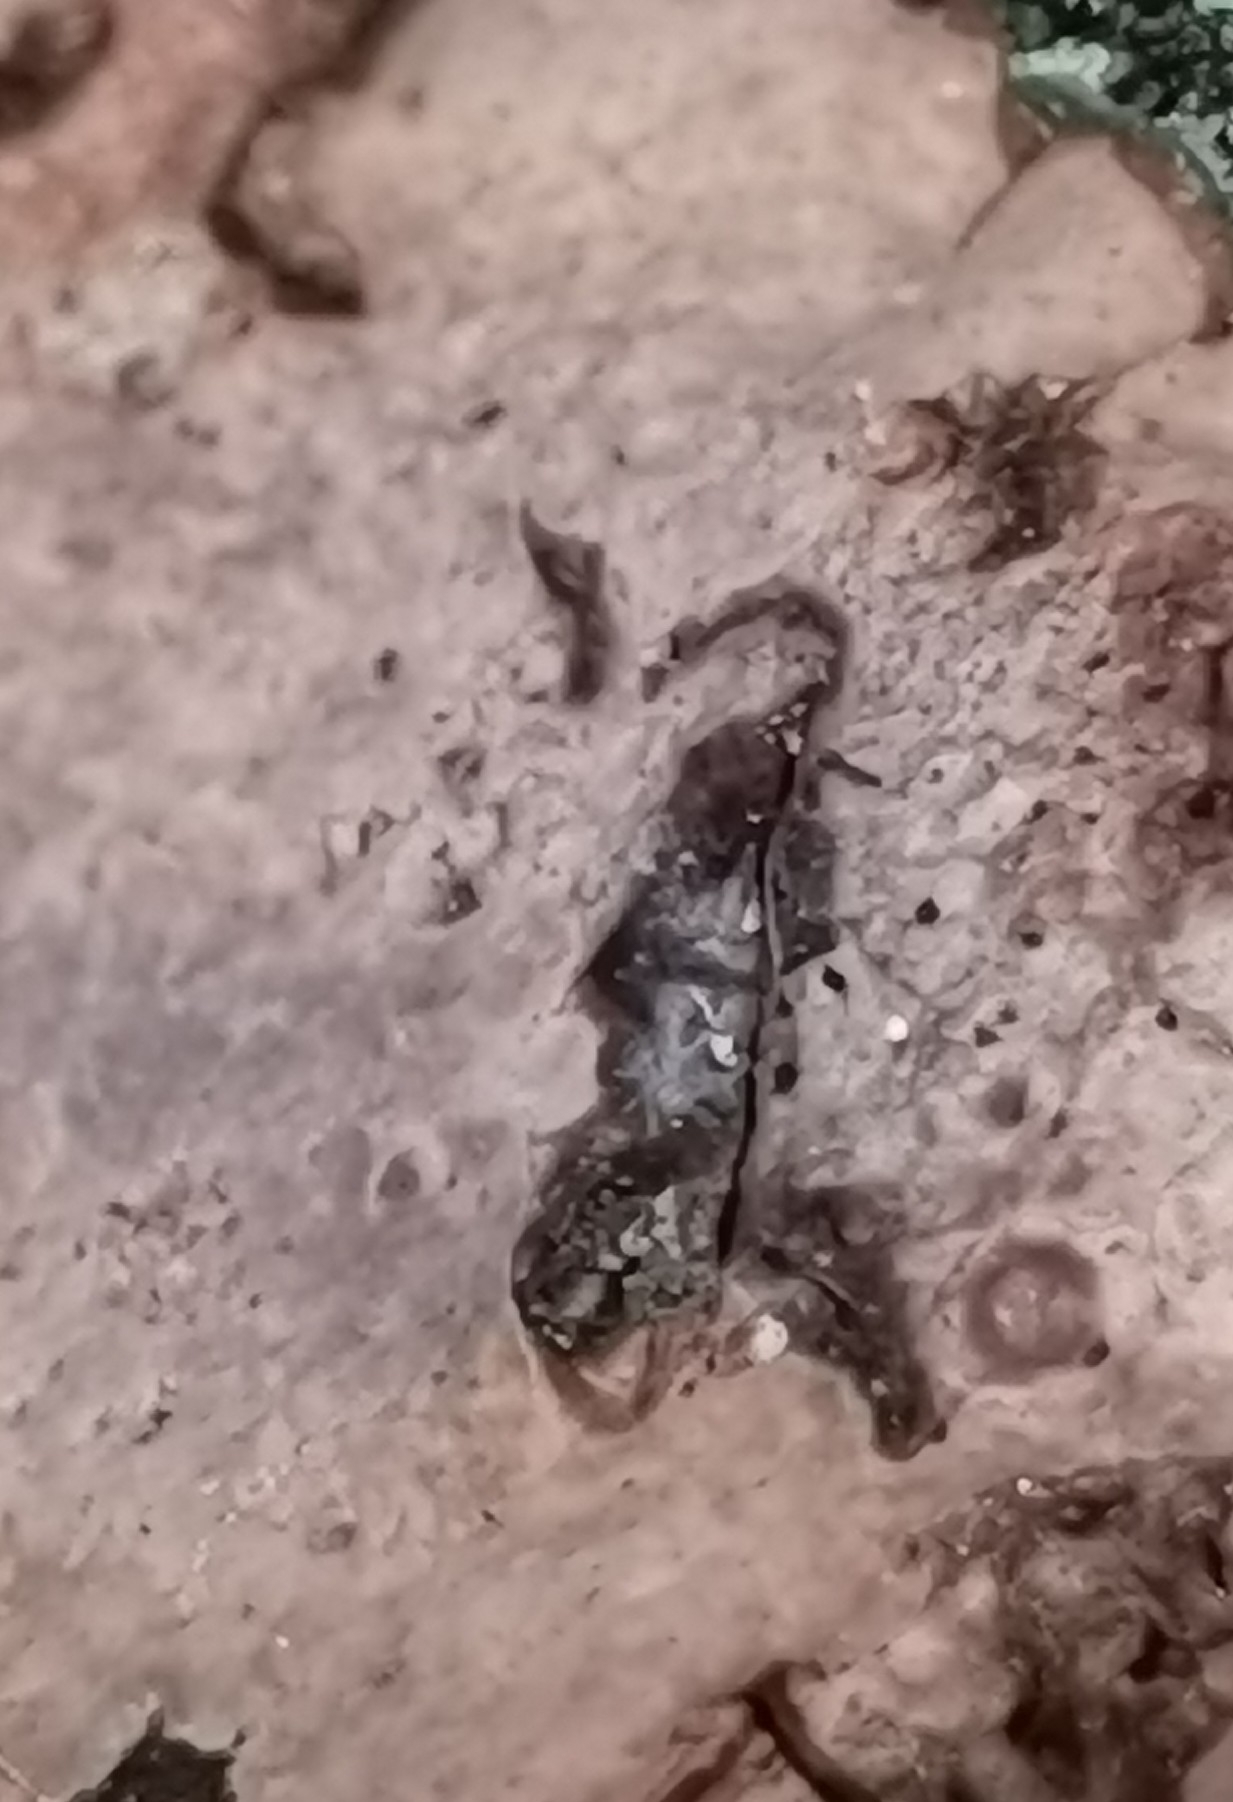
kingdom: Fungi
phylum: Basidiomycota
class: Agaricomycetes
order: Russulales
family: Stereaceae
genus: Stereum
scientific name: Stereum rugosum
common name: Bleeding broadleaf crust
